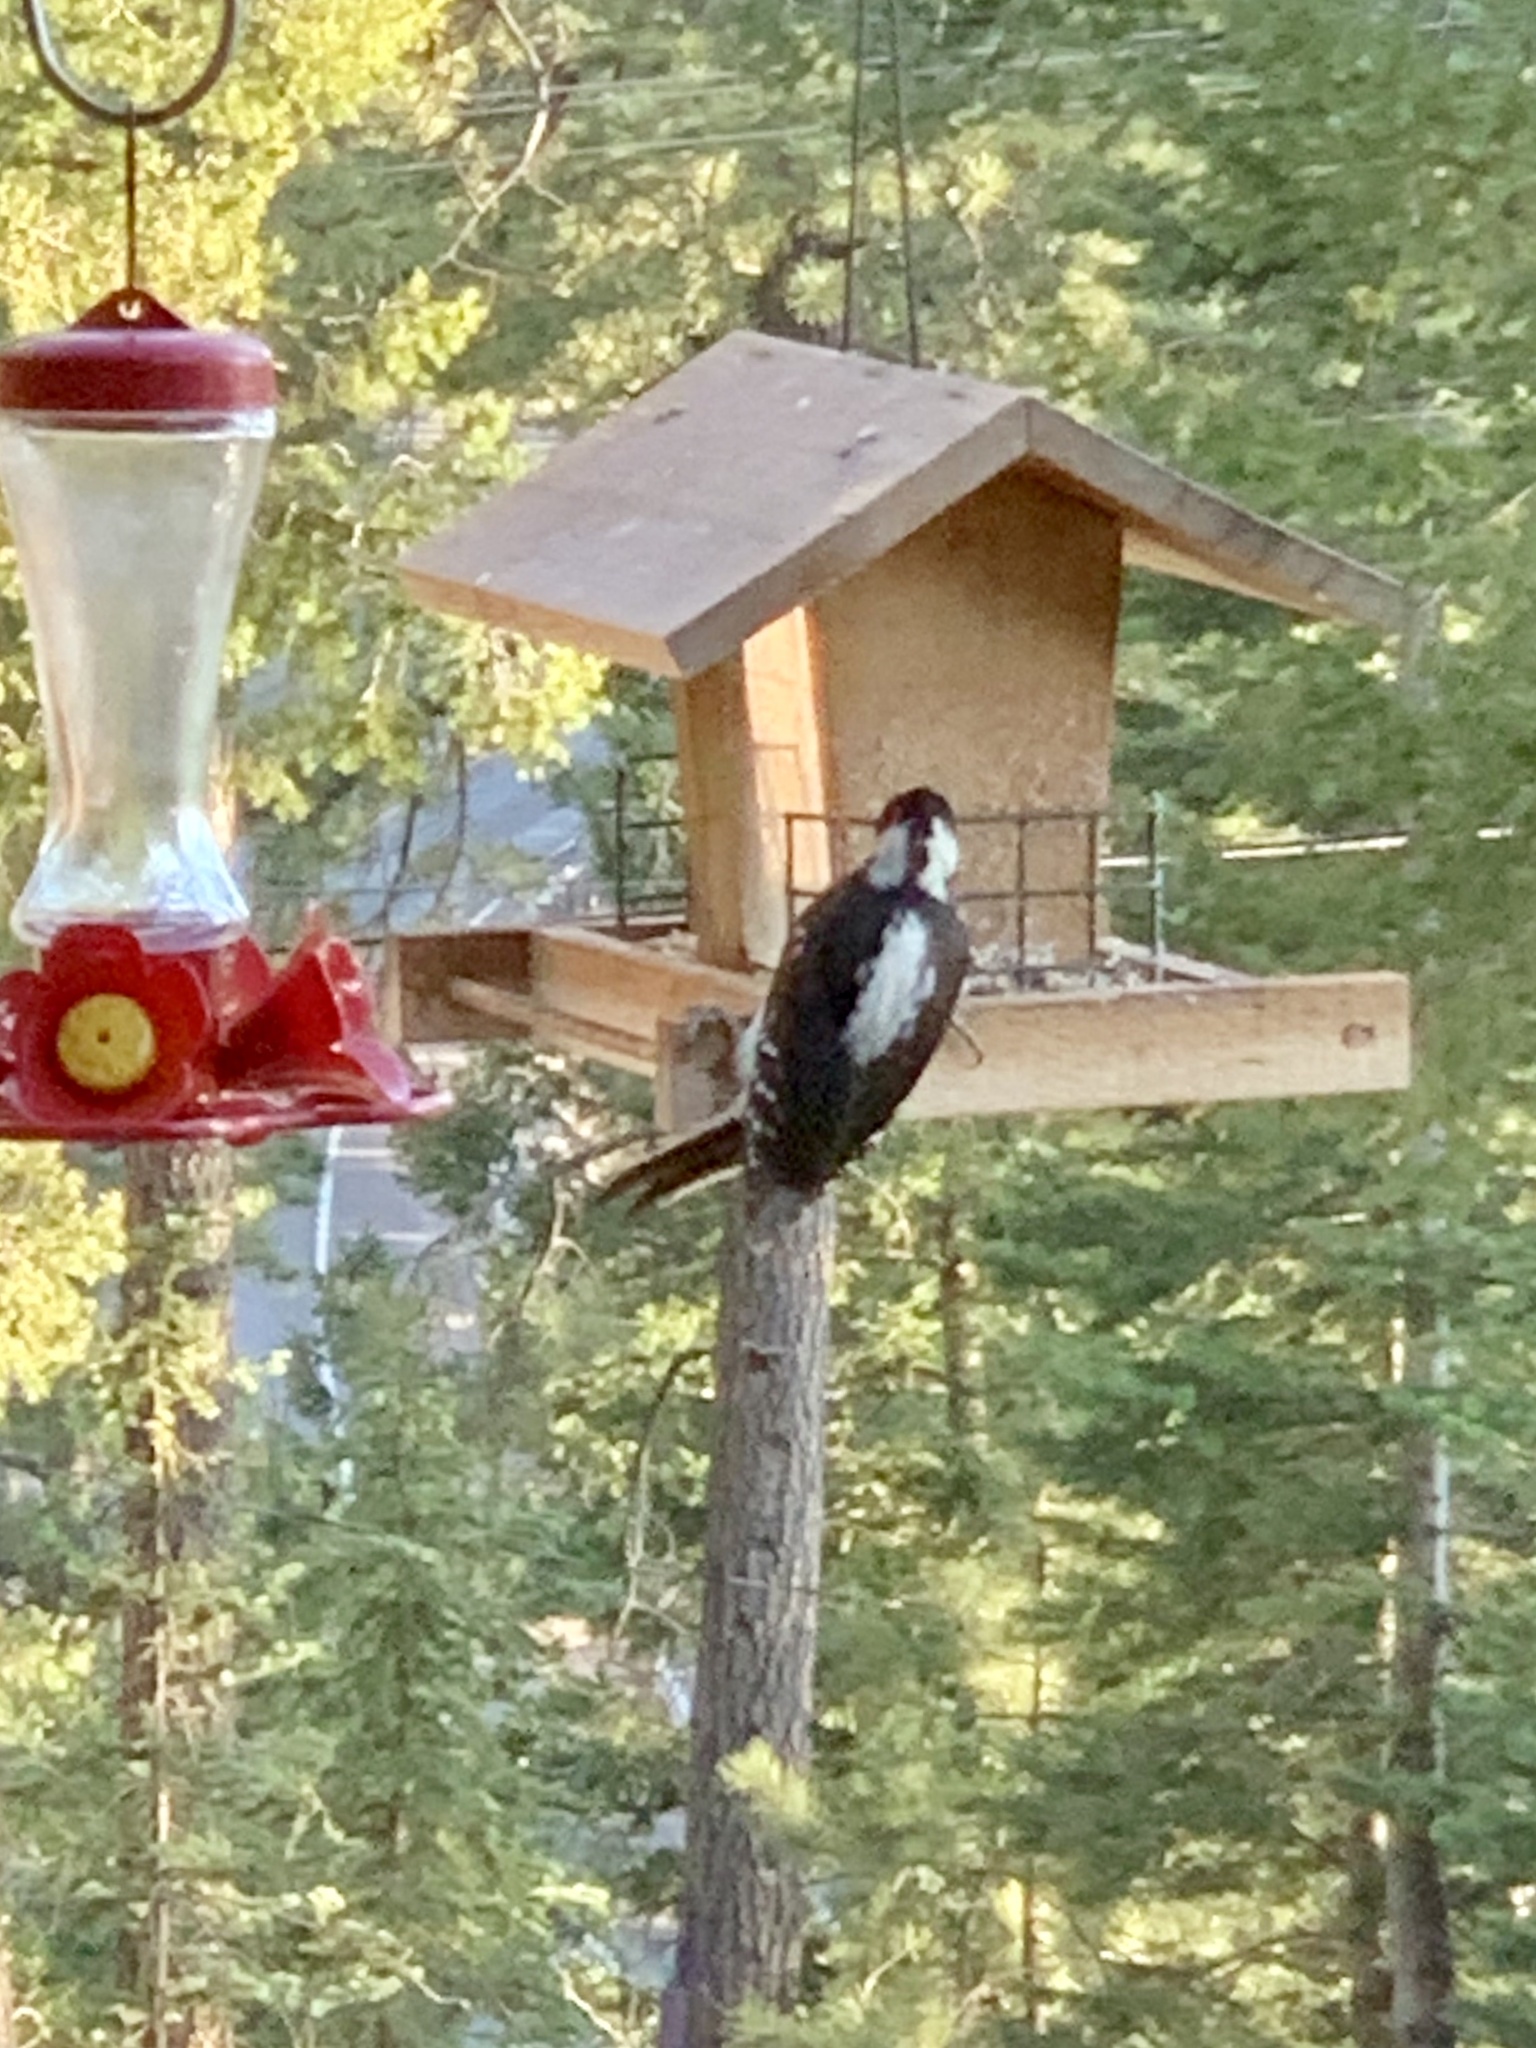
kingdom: Animalia
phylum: Chordata
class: Aves
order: Piciformes
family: Picidae
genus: Leuconotopicus
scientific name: Leuconotopicus villosus
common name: Hairy woodpecker
